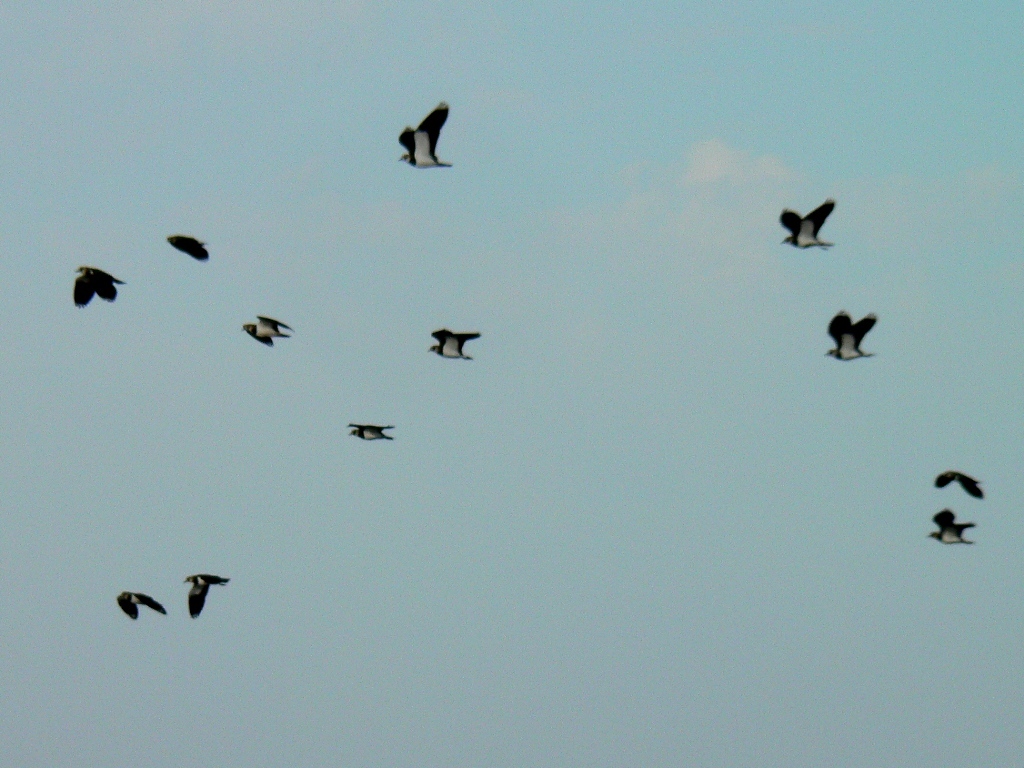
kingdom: Animalia
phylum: Chordata
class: Aves
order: Charadriiformes
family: Charadriidae
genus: Vanellus
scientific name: Vanellus vanellus
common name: Northern lapwing
